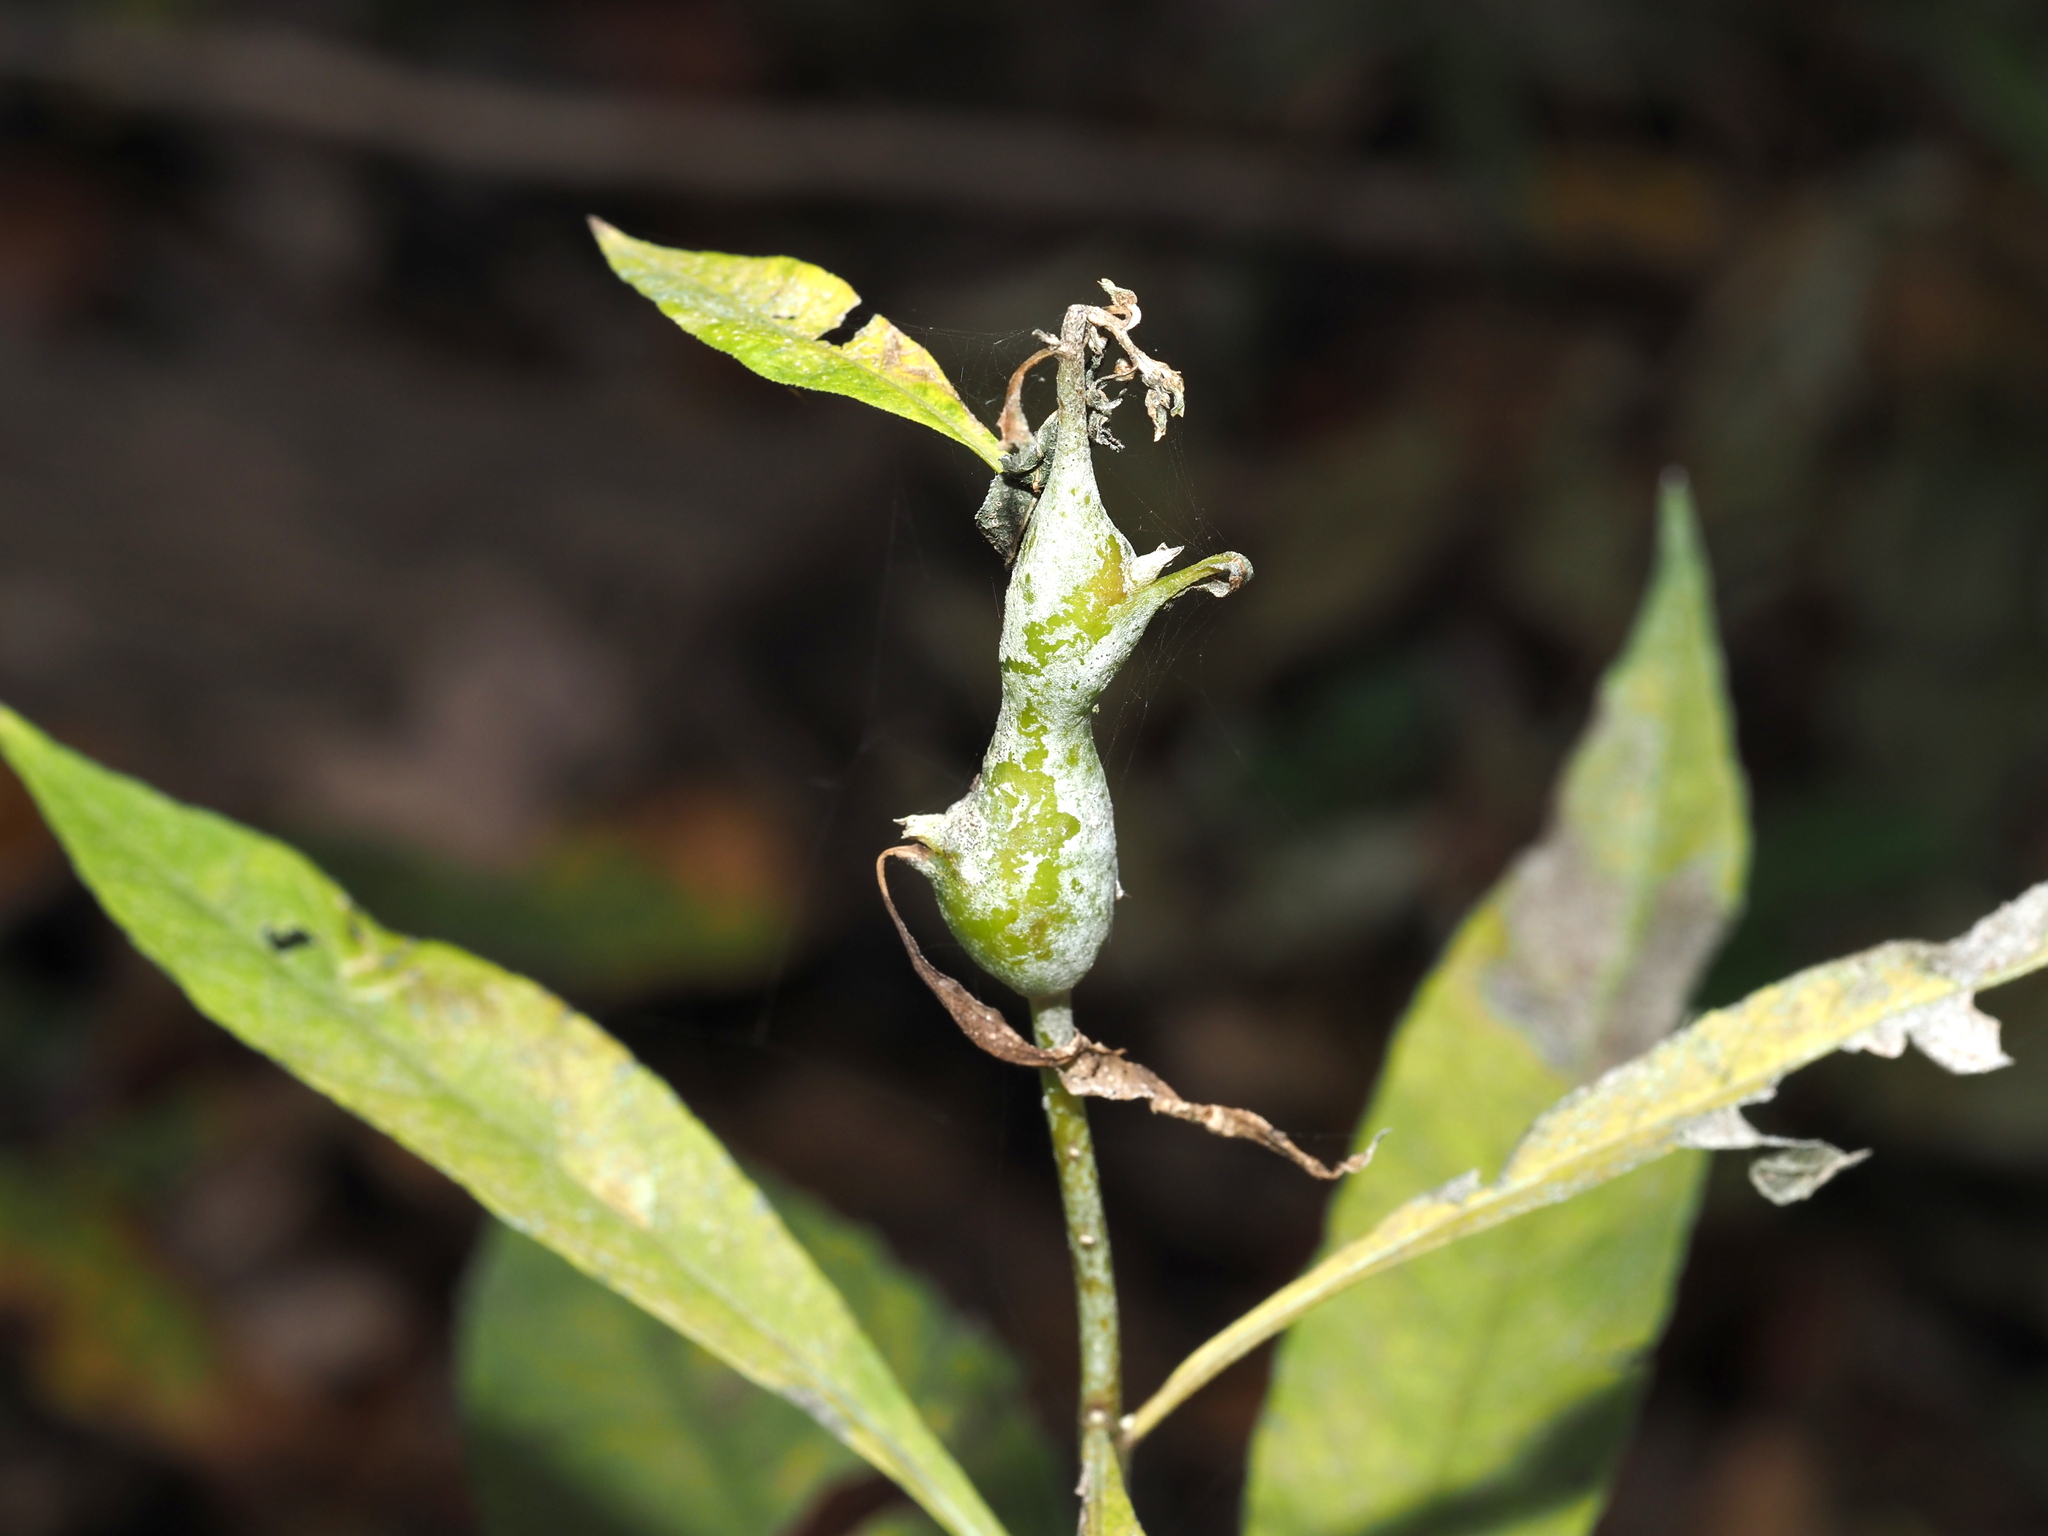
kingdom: Animalia
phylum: Arthropoda
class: Insecta
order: Diptera
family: Cecidomyiidae
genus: Neolasioptera
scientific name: Neolasioptera verbesinae
